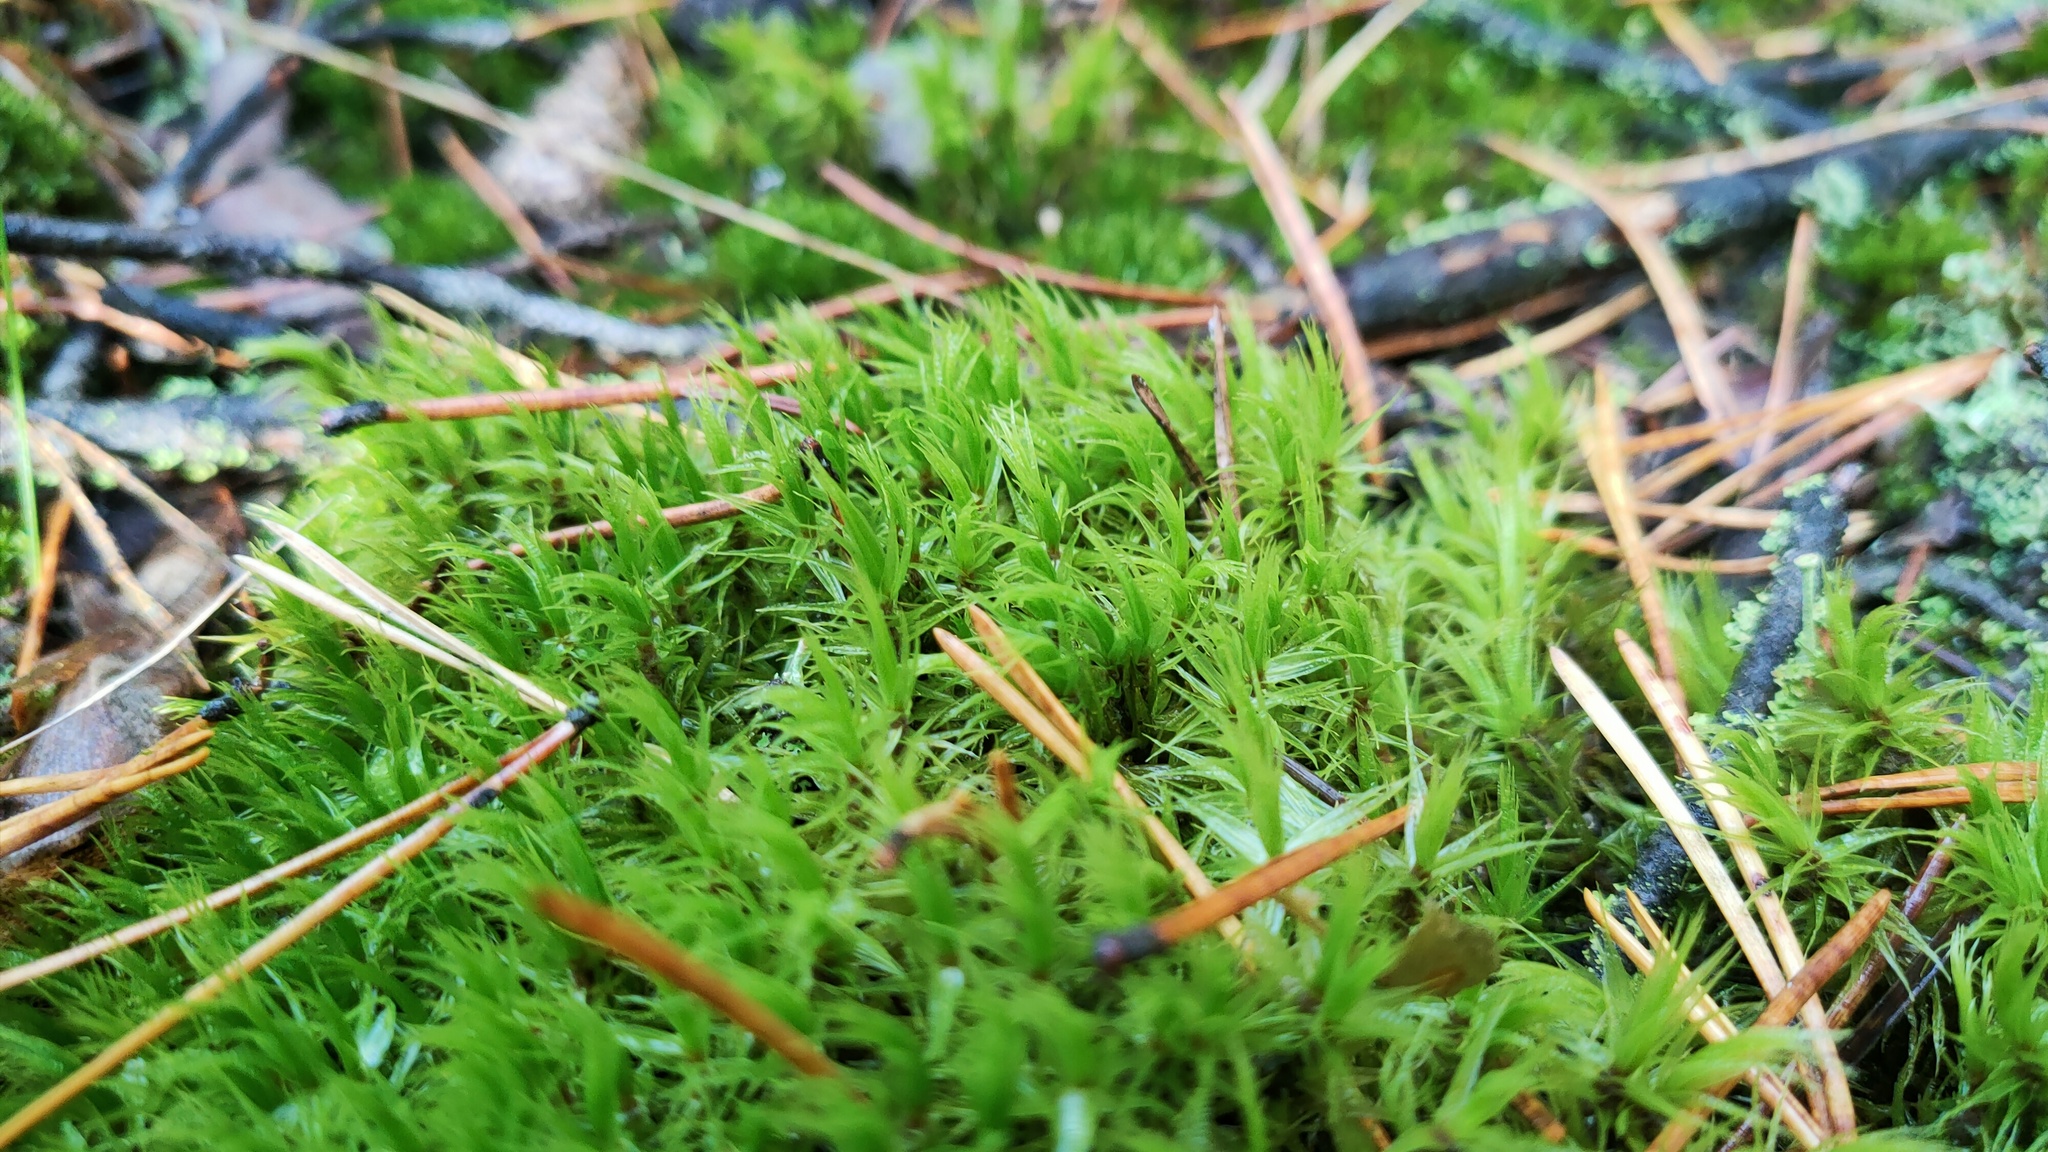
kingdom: Plantae
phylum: Bryophyta
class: Bryopsida
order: Dicranales
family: Dicranaceae
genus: Dicranum
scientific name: Dicranum scoparium
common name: Broom fork-moss
